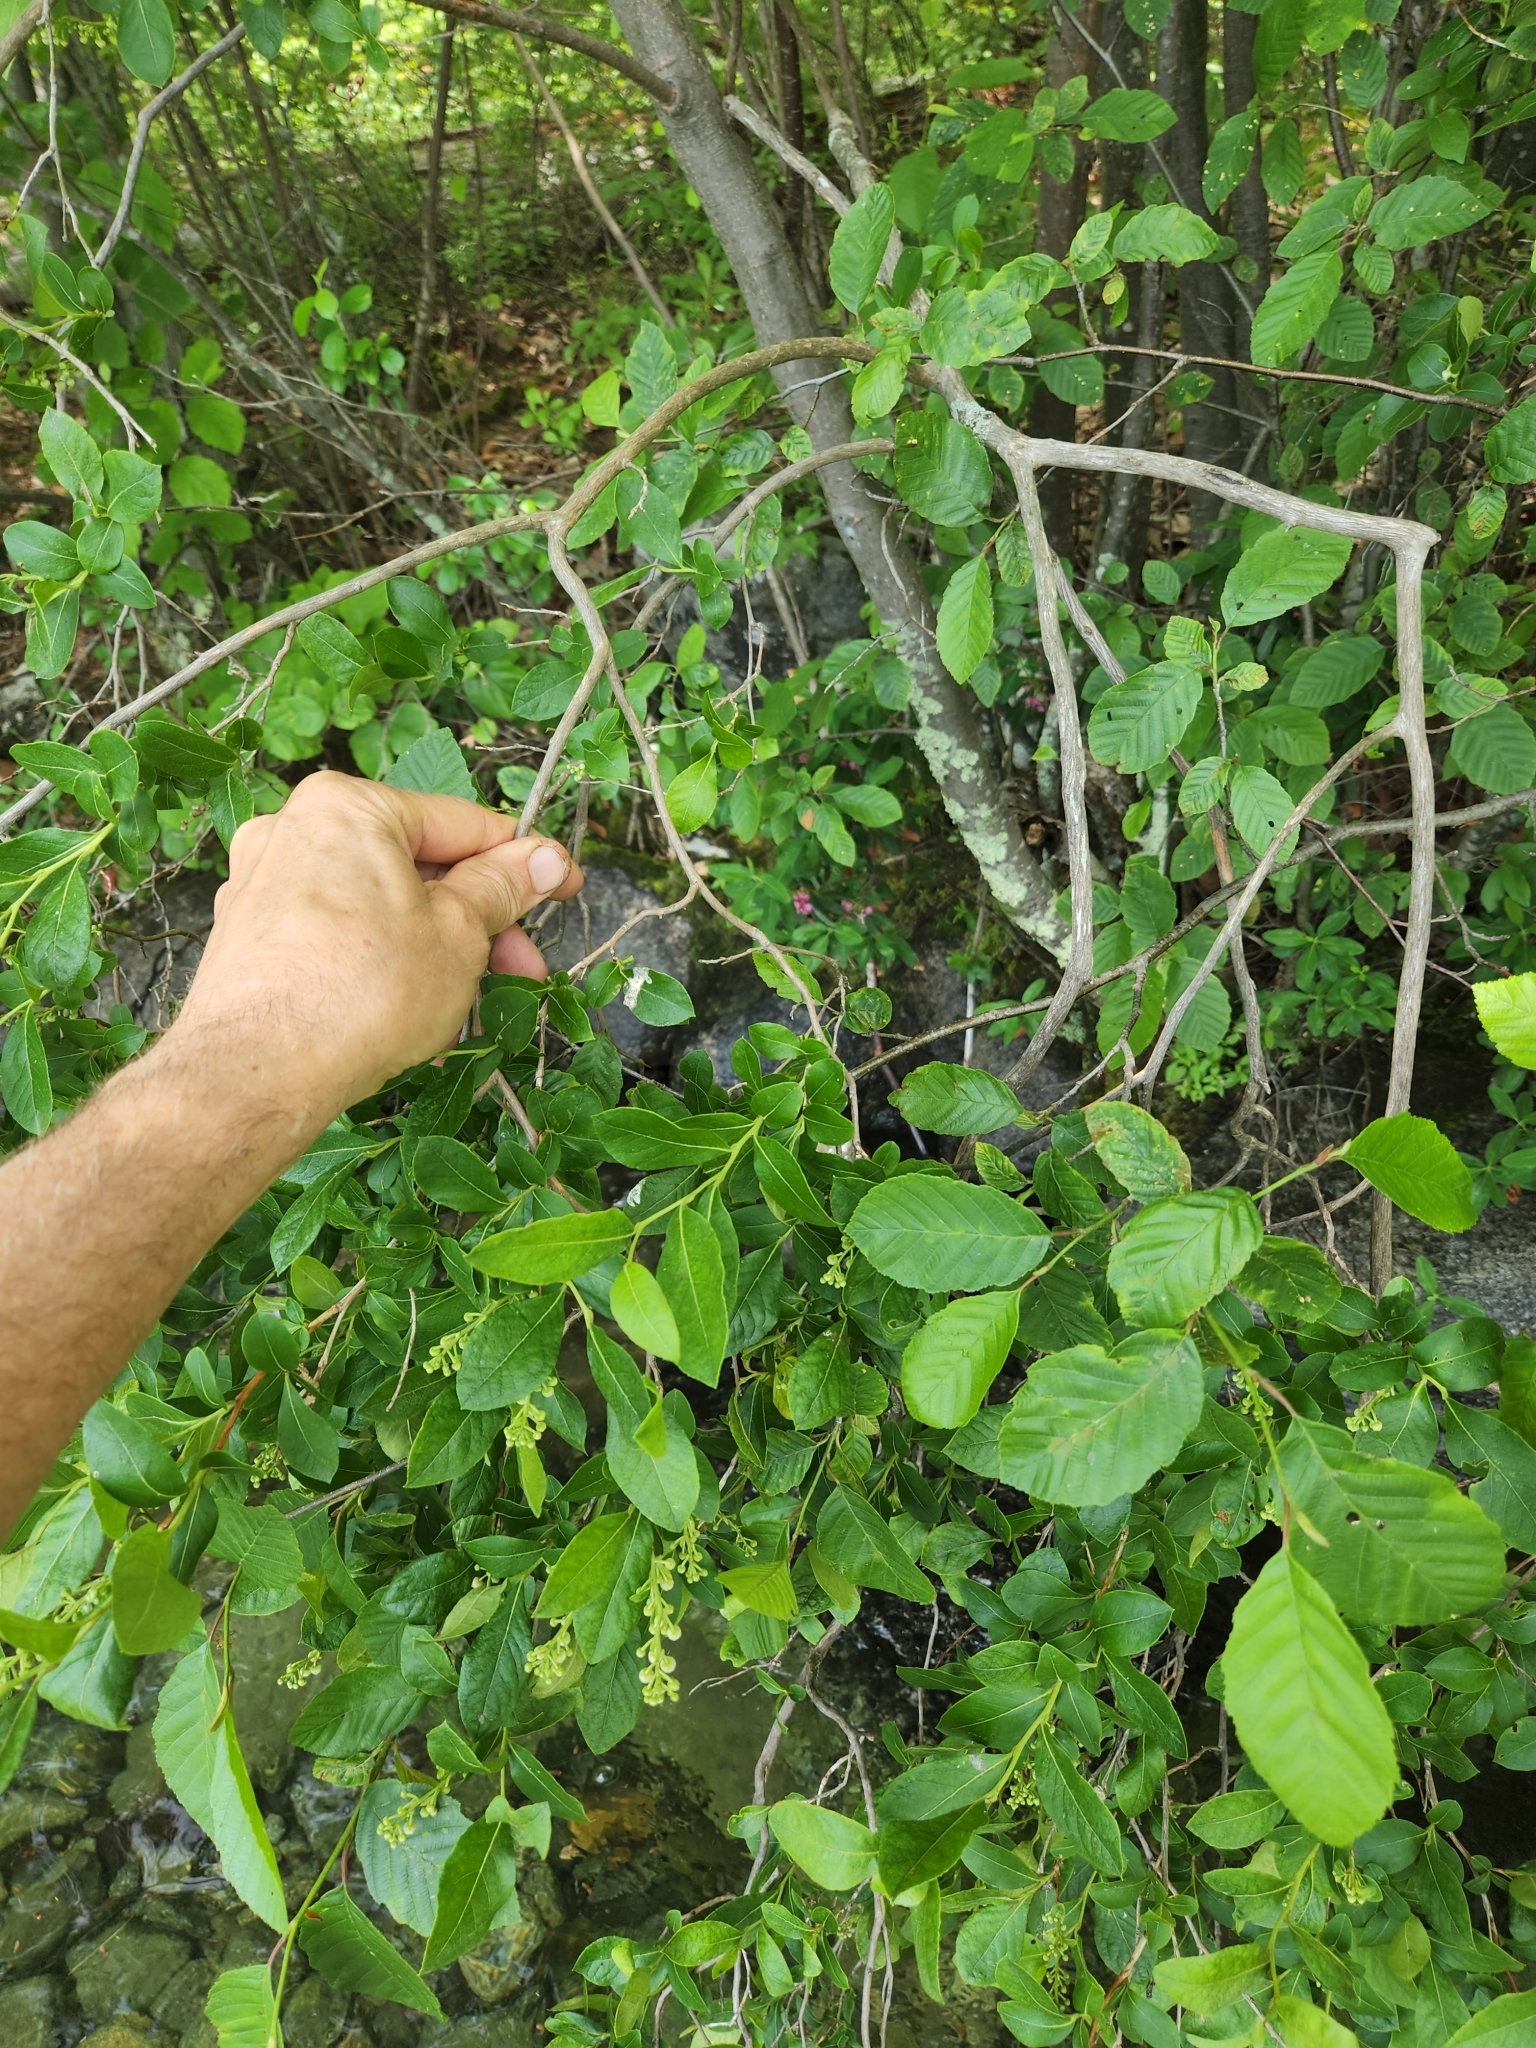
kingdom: Plantae
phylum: Tracheophyta
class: Magnoliopsida
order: Ericales
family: Ericaceae
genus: Lyonia
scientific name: Lyonia ligustrina
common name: Maleberry
